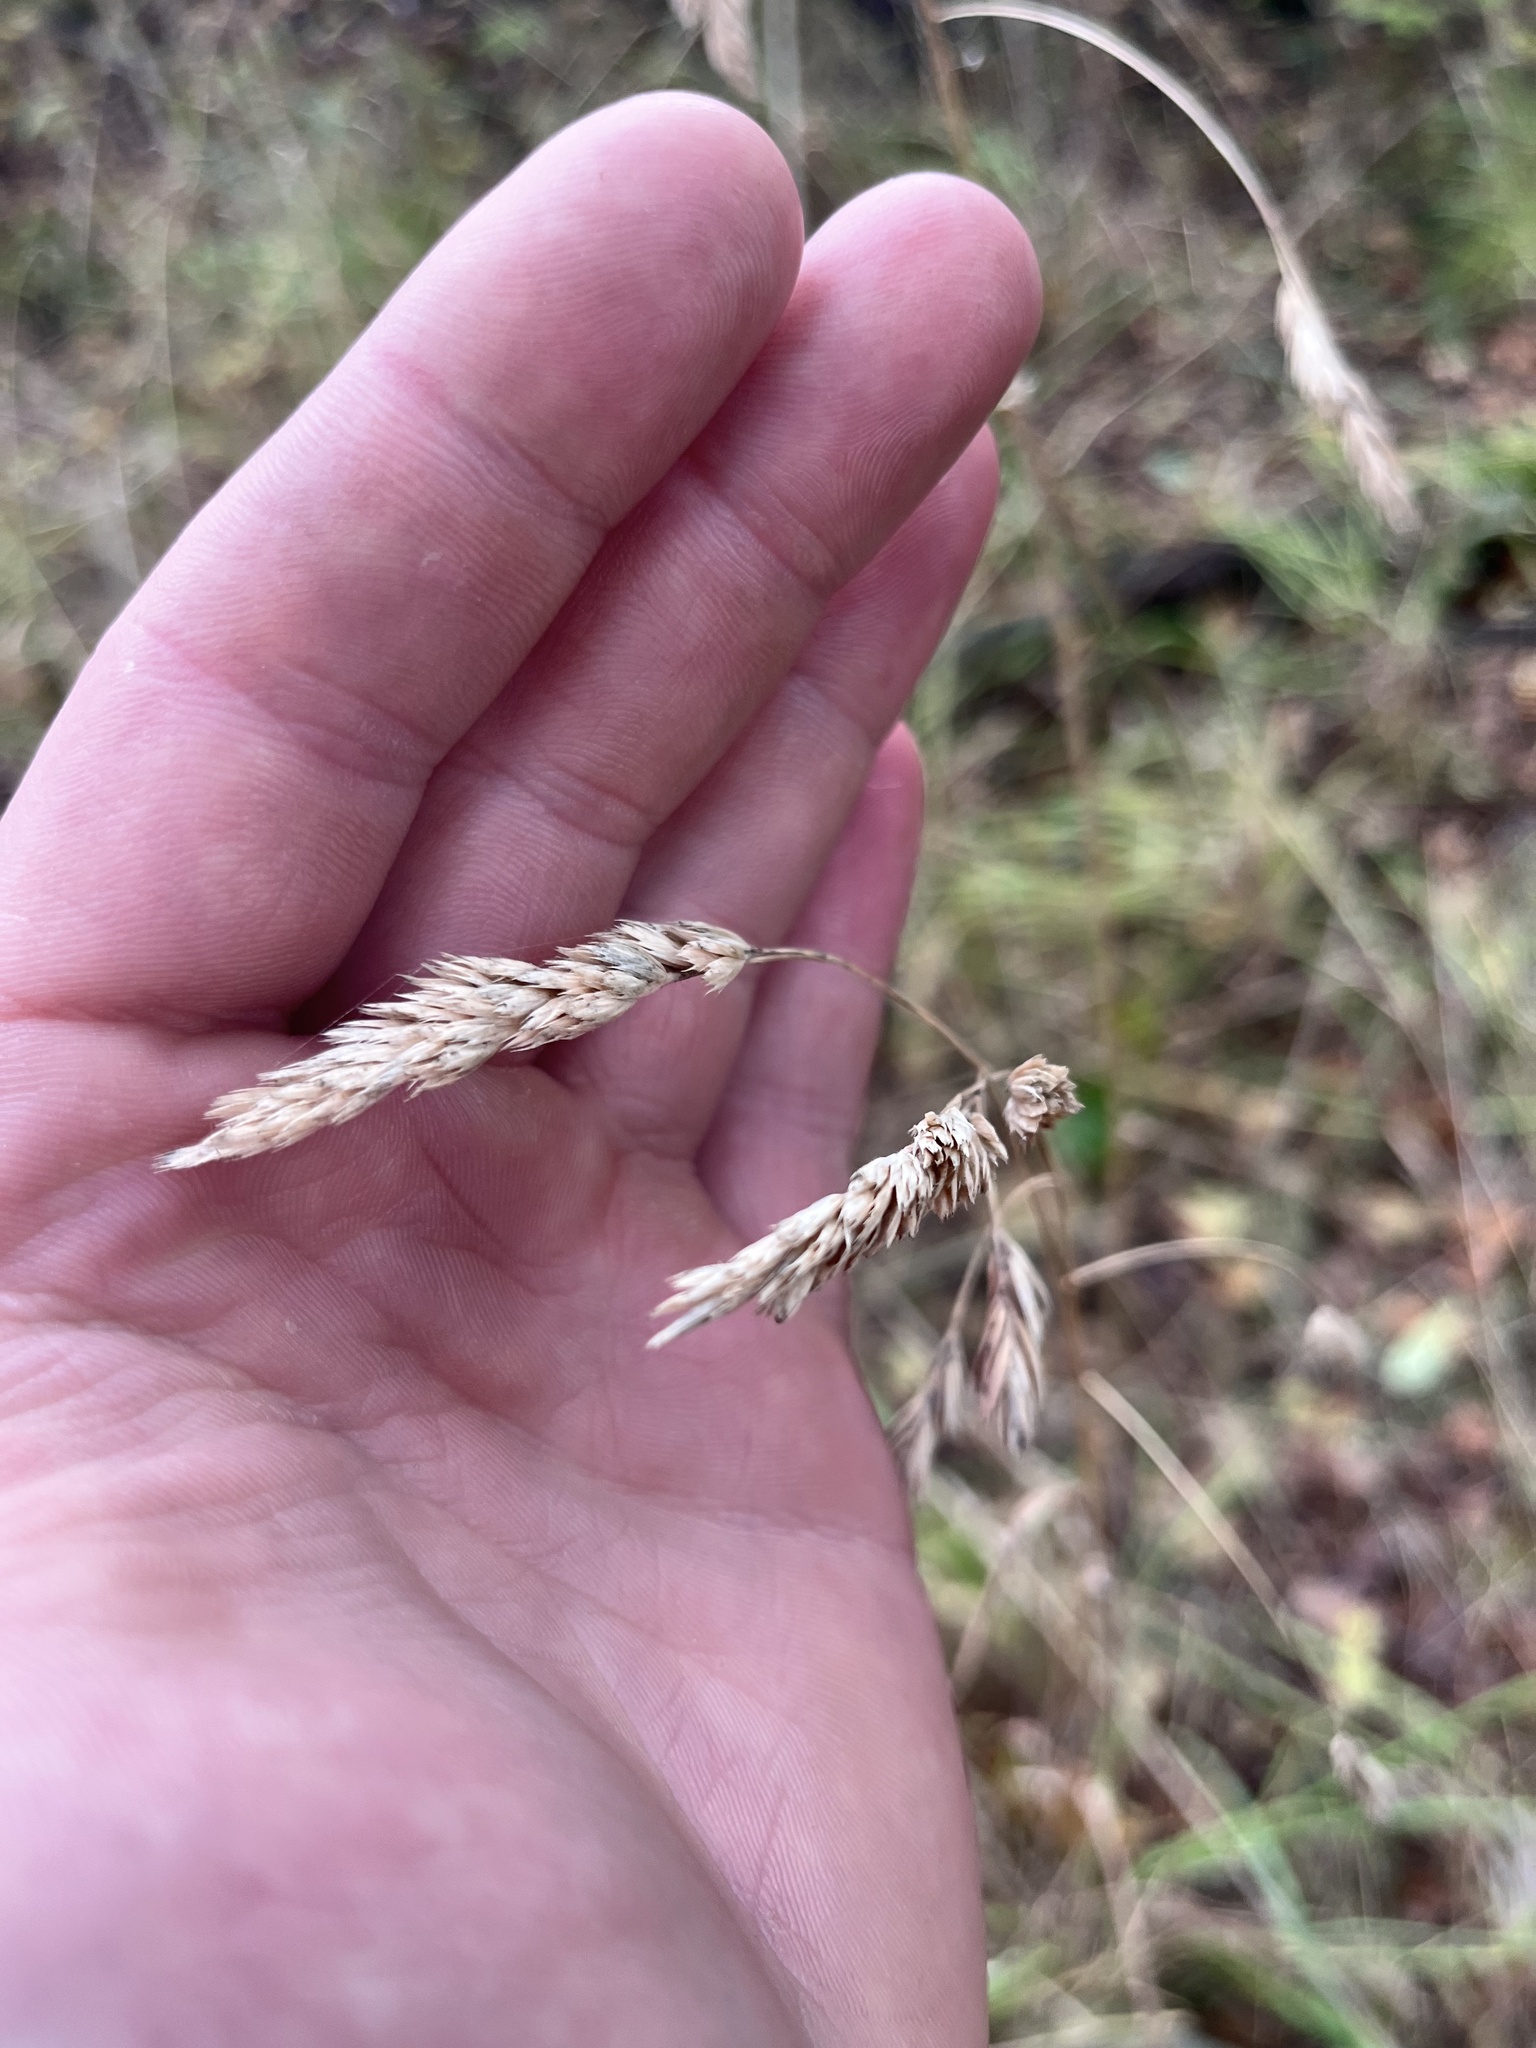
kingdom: Plantae
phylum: Tracheophyta
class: Liliopsida
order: Poales
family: Poaceae
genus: Dactylis
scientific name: Dactylis glomerata
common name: Orchardgrass
